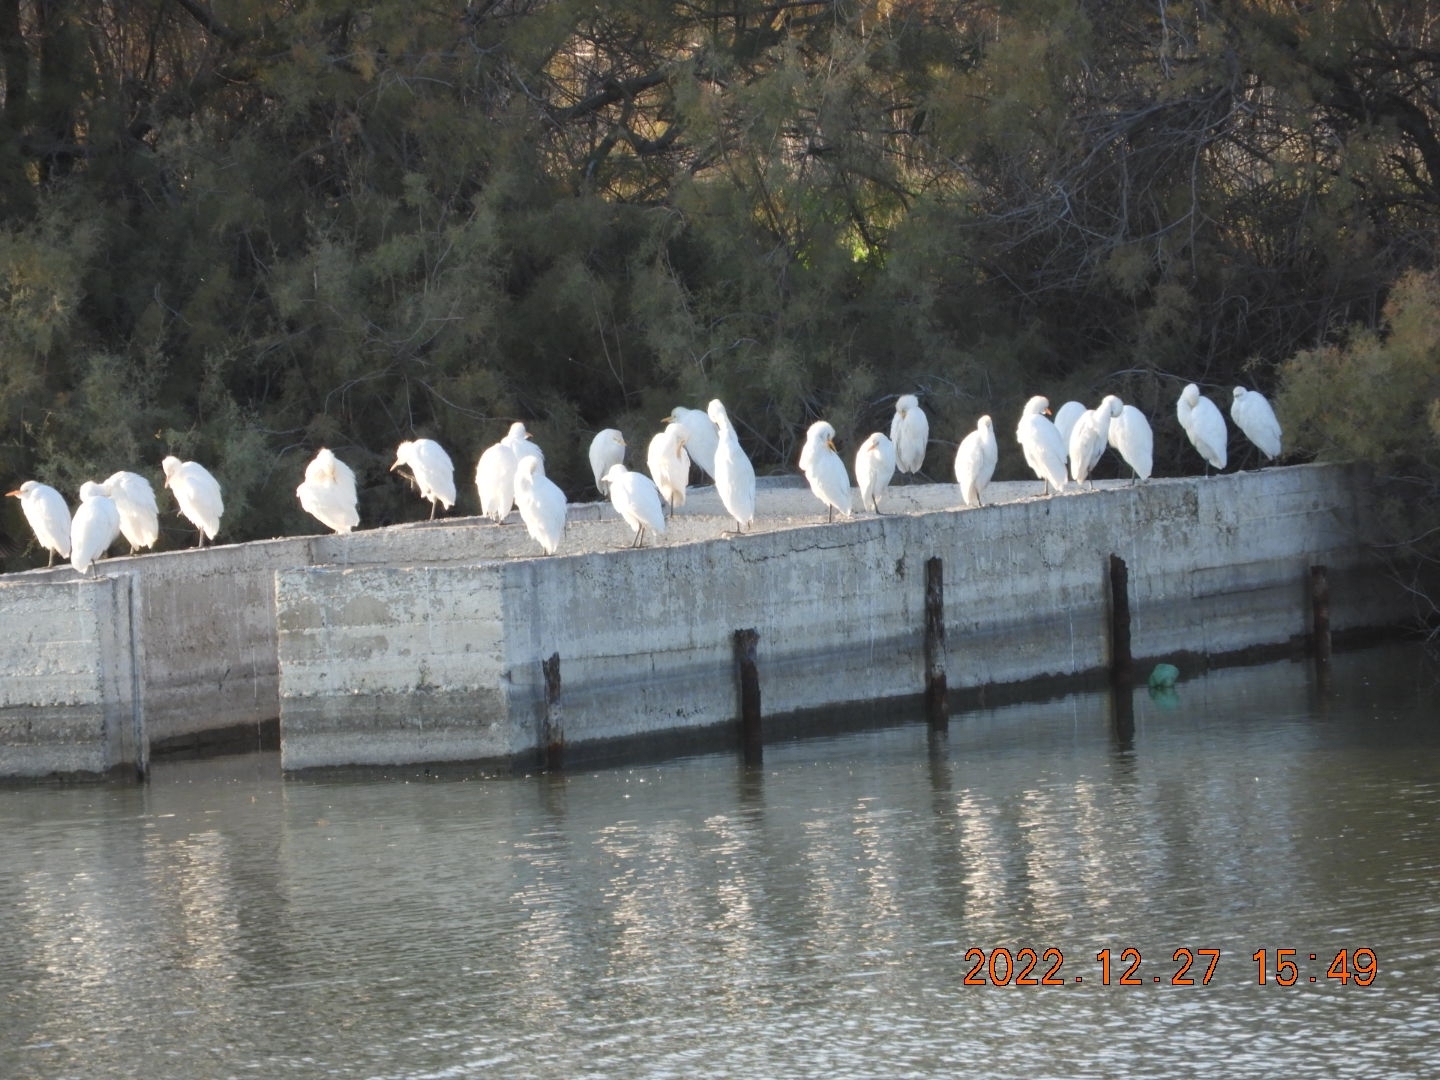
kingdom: Animalia
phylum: Chordata
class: Aves
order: Pelecaniformes
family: Ardeidae
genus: Bubulcus
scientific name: Bubulcus ibis
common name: Cattle egret
